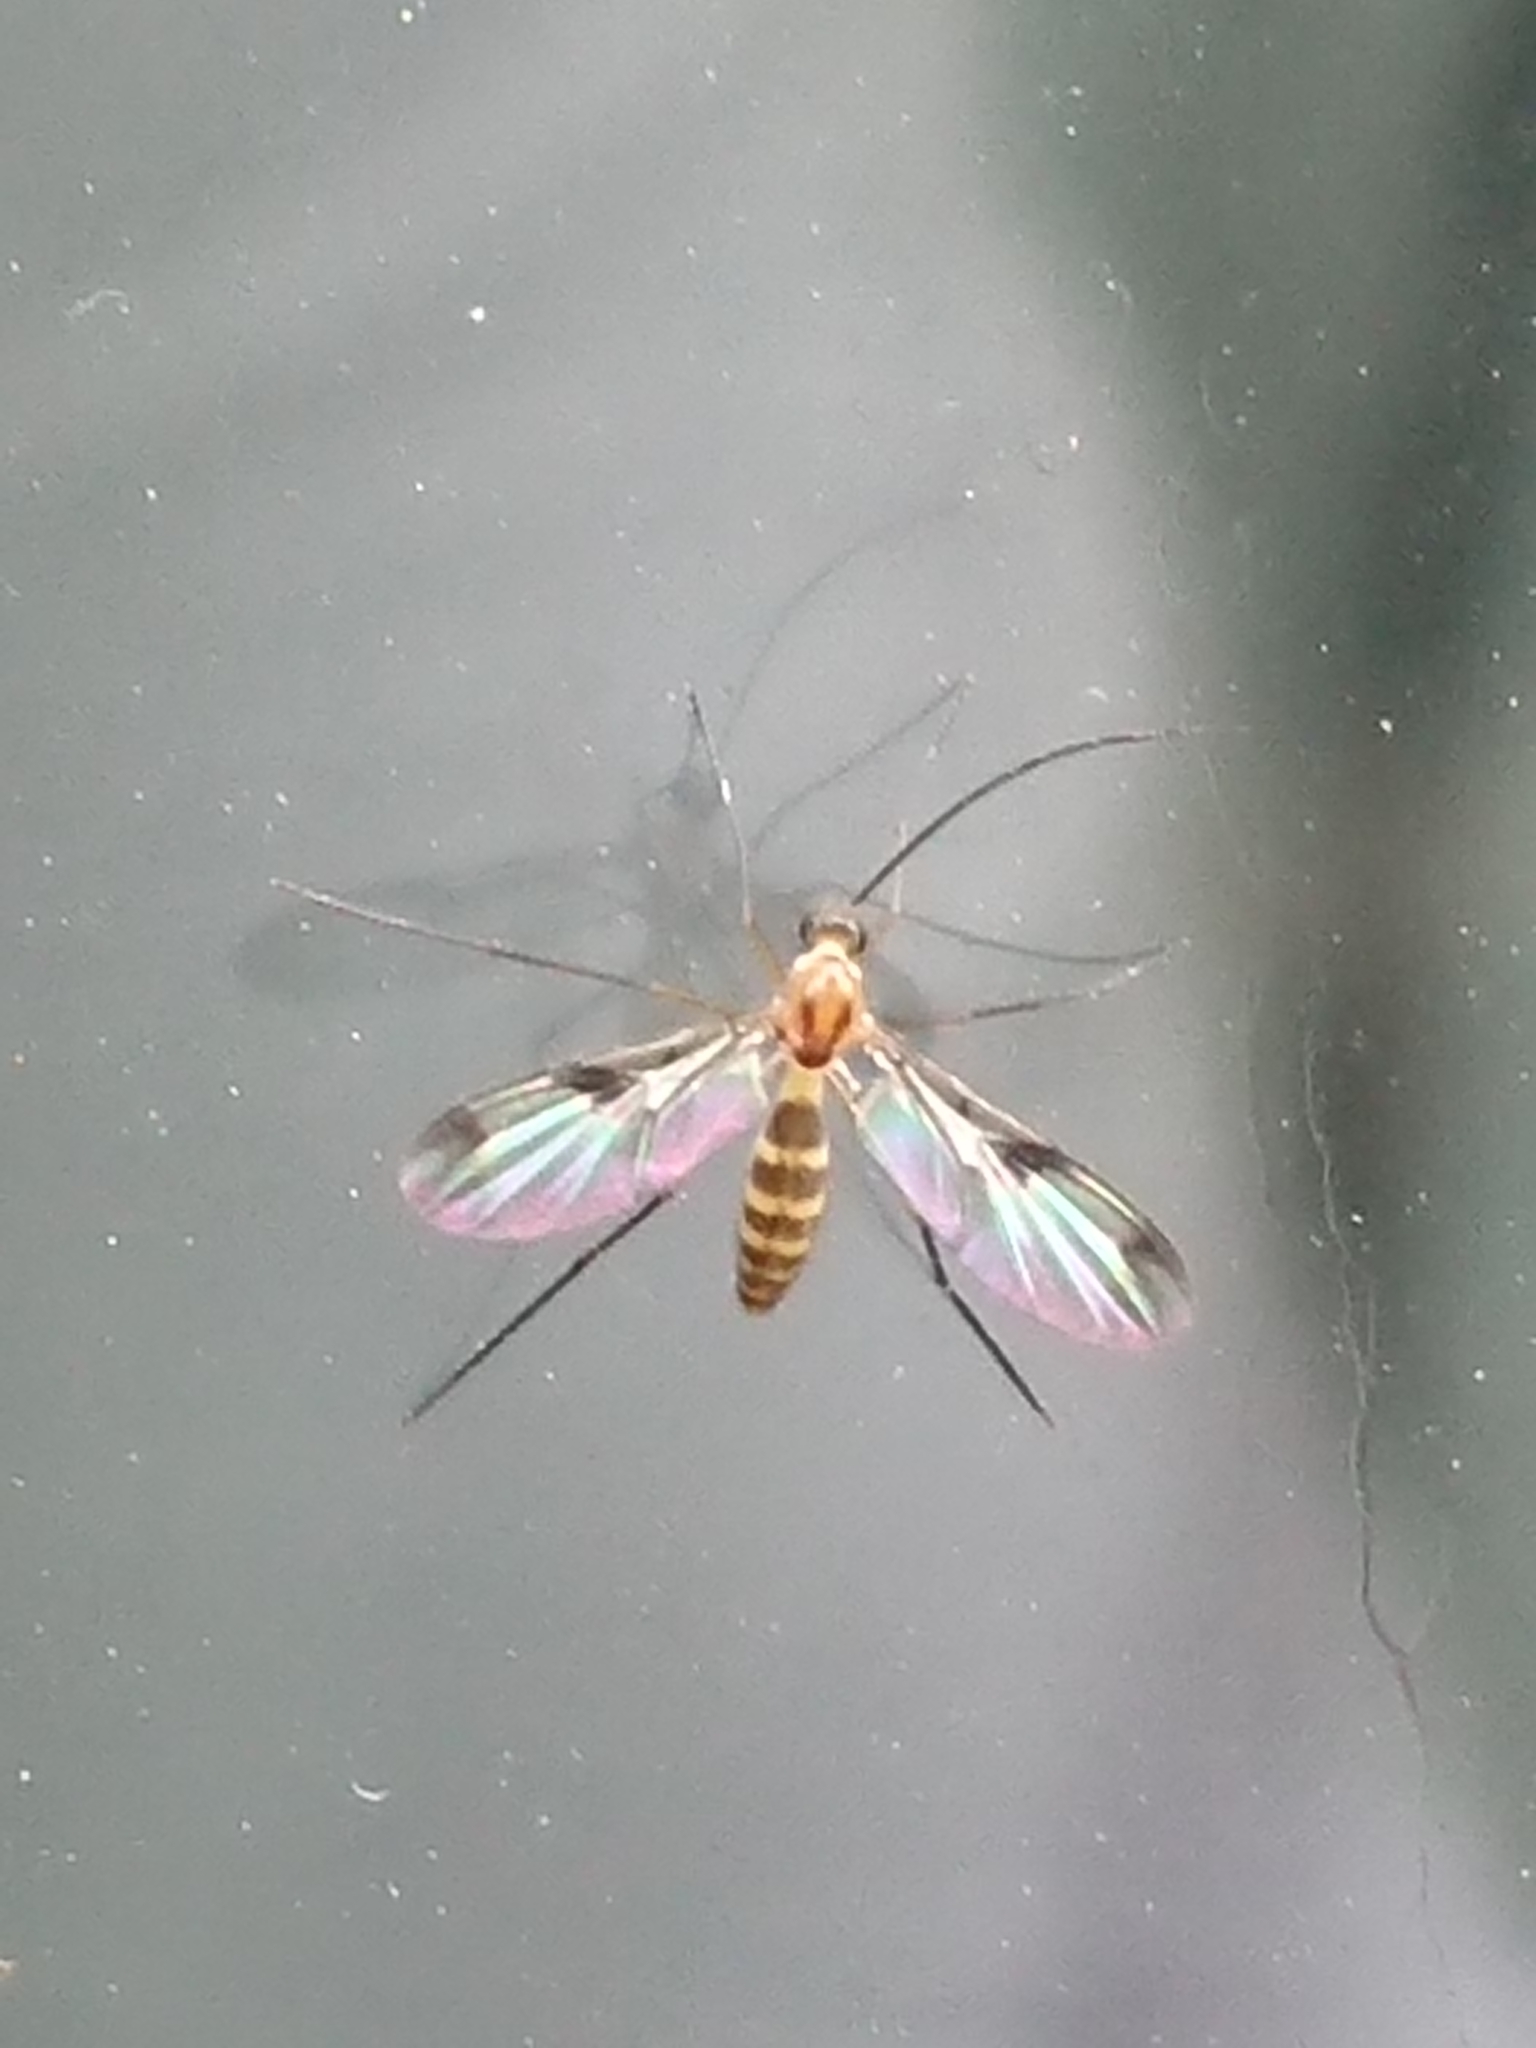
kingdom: Animalia
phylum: Arthropoda
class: Insecta
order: Diptera
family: Keroplatidae
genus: Macrocera
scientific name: Macrocera scoparia
